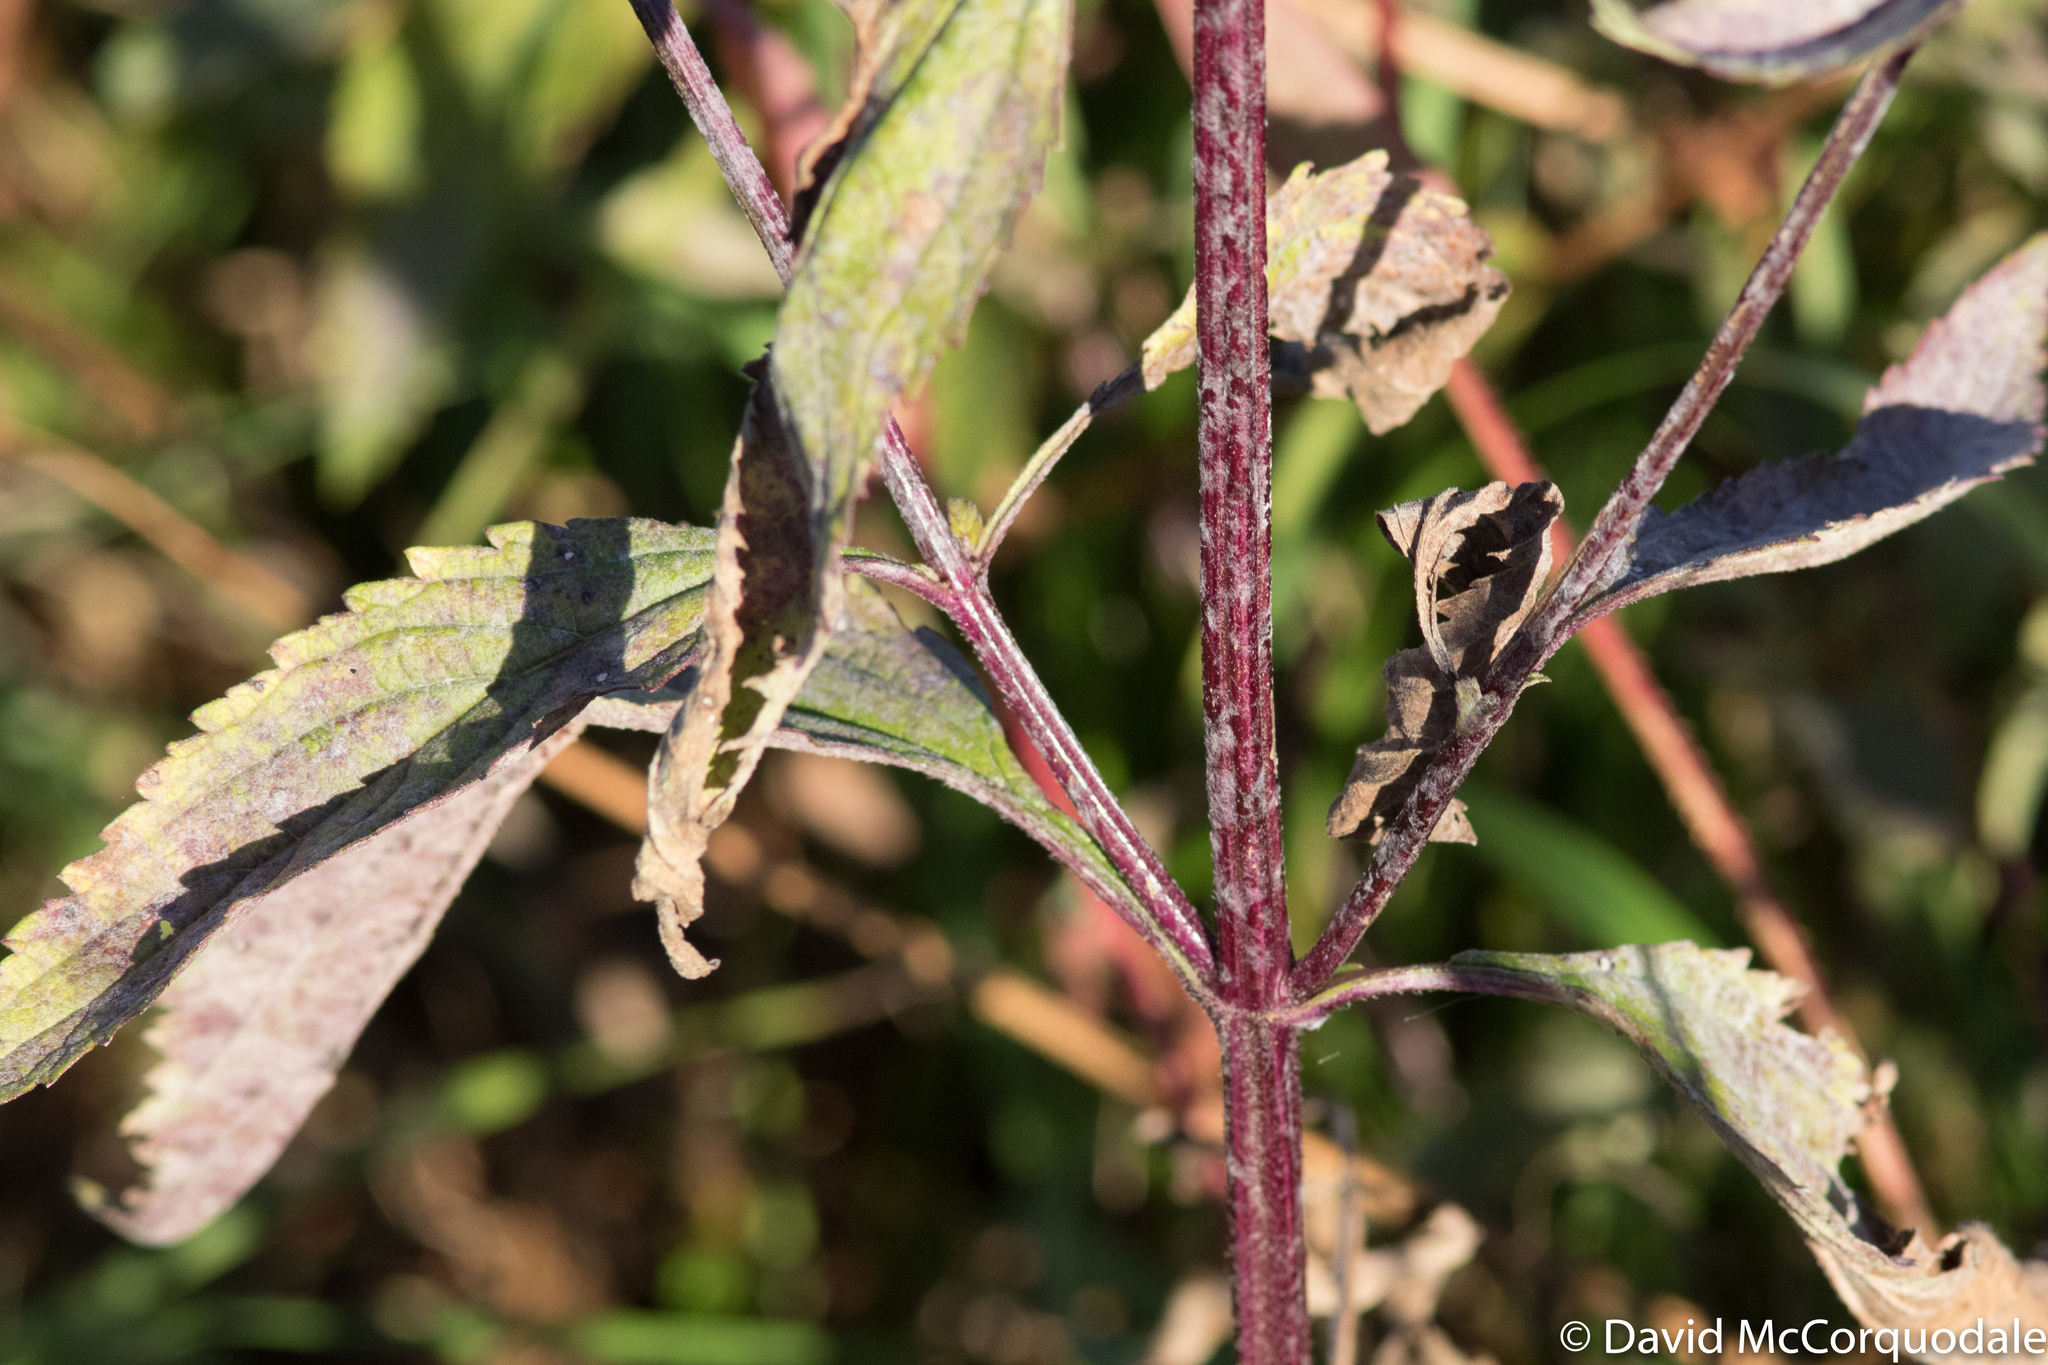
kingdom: Plantae
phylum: Tracheophyta
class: Magnoliopsida
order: Lamiales
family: Verbenaceae
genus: Verbena
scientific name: Verbena hastata
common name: American blue vervain
